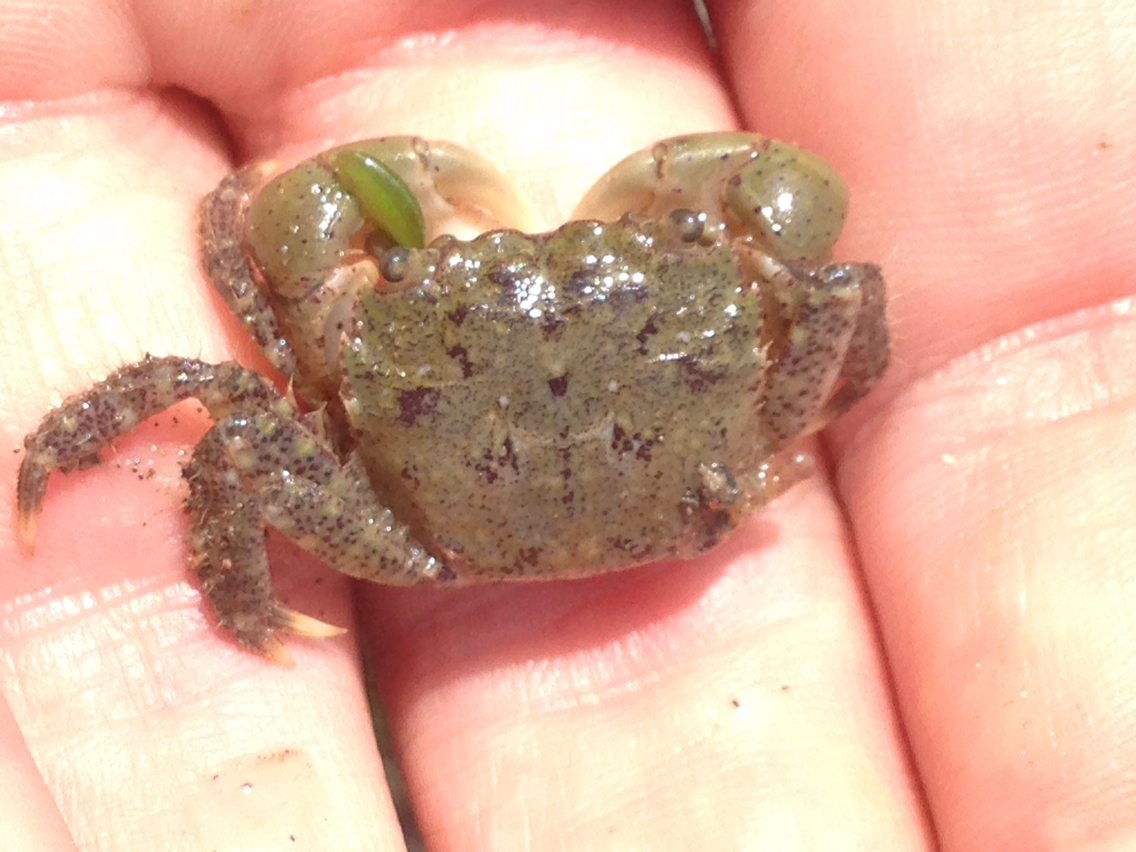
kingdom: Animalia
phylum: Arthropoda
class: Malacostraca
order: Decapoda
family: Varunidae
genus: Hemigrapsus
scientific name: Hemigrapsus oregonensis
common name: Yellow shore crab
